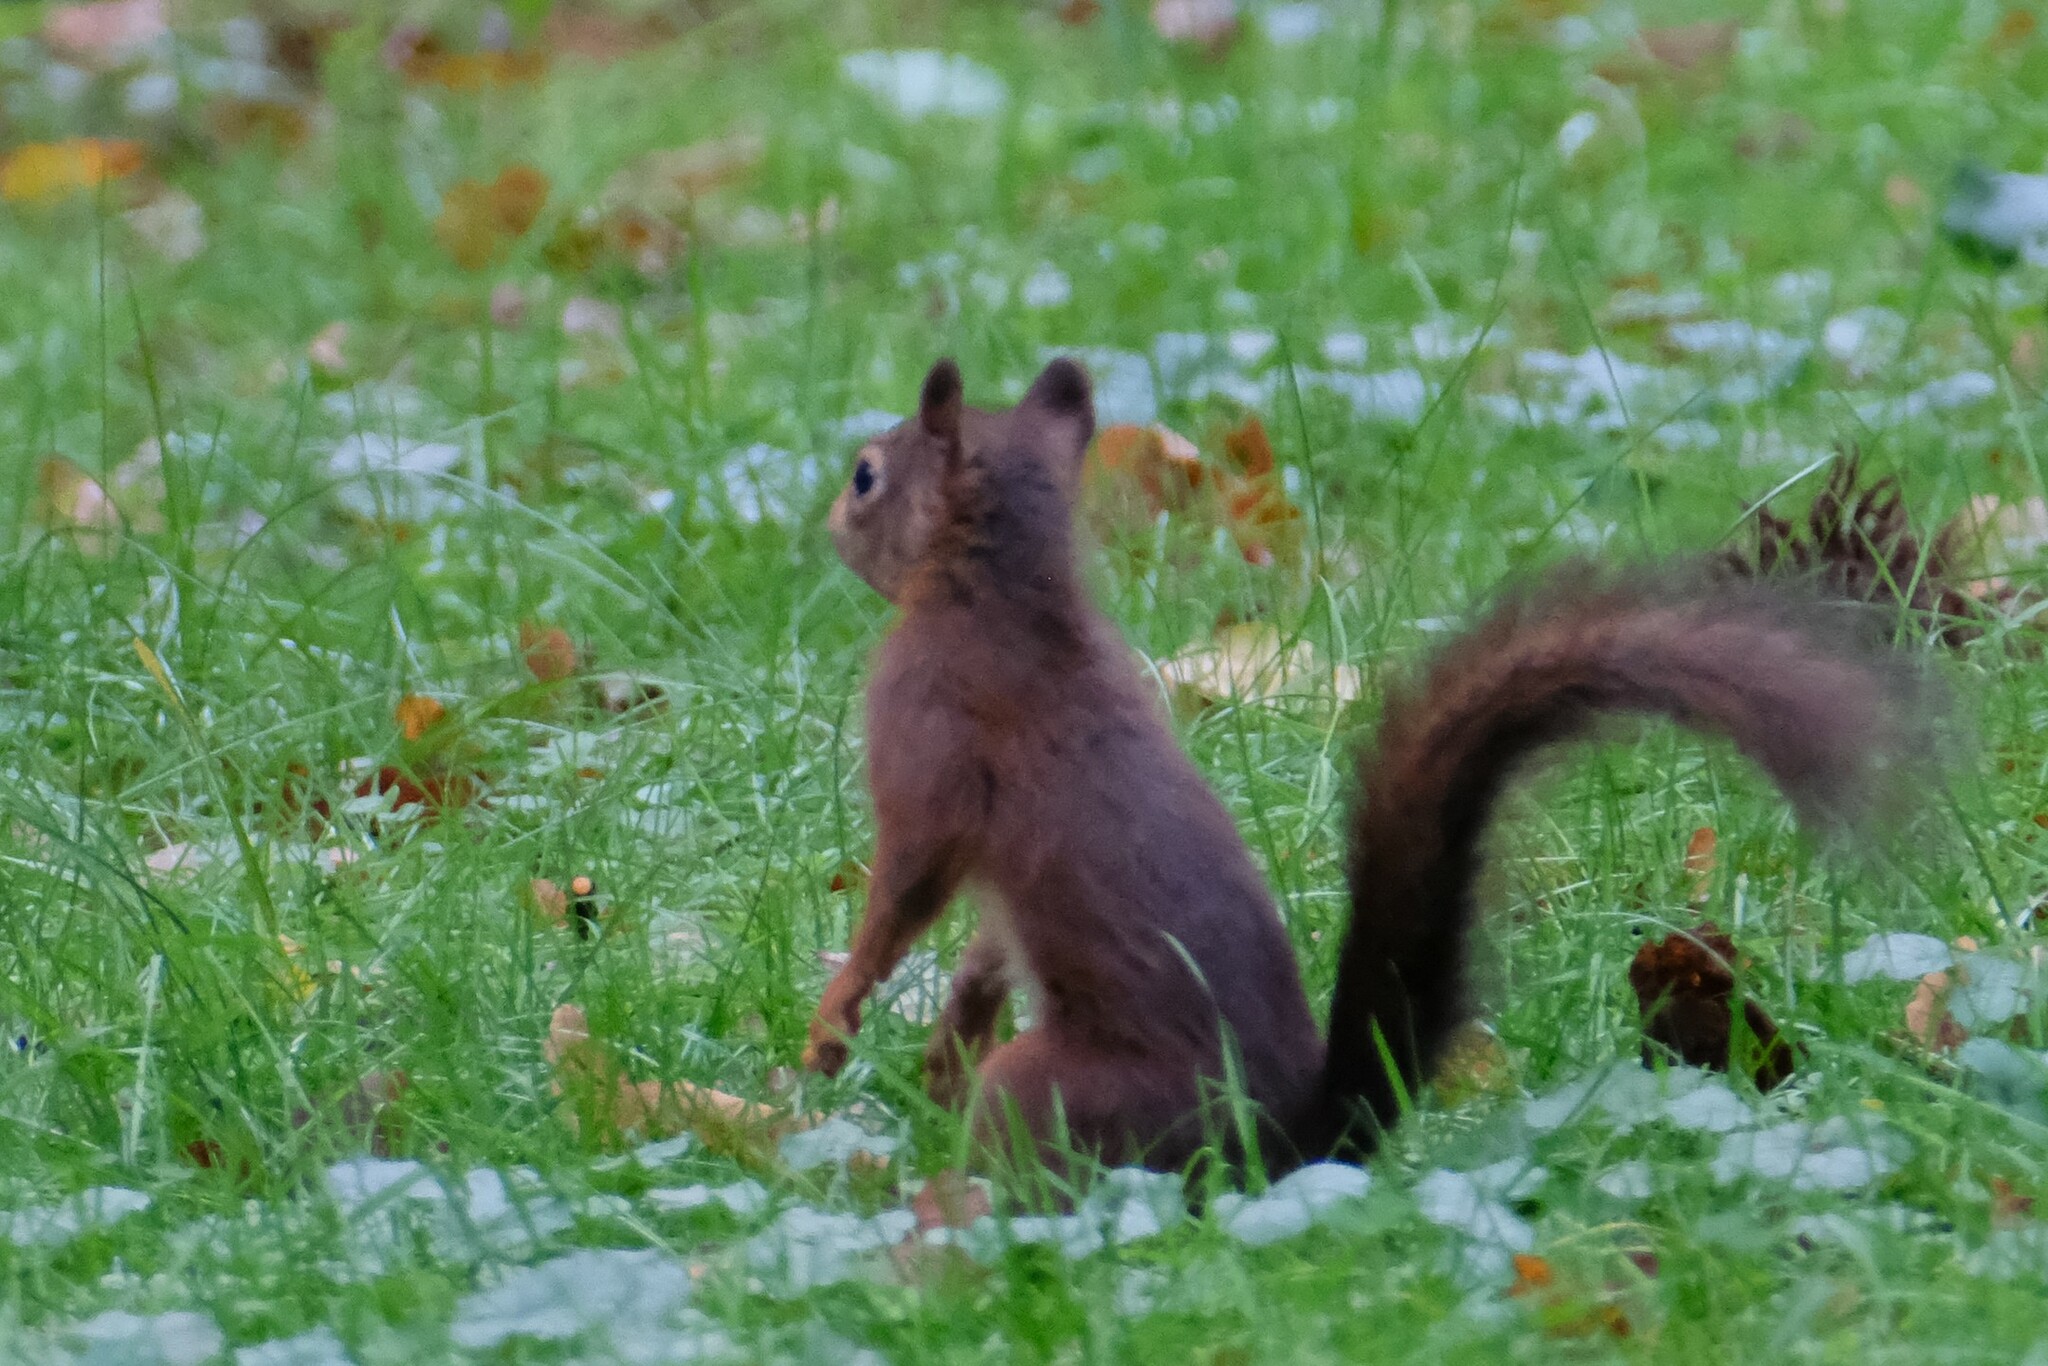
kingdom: Animalia
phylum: Chordata
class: Mammalia
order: Rodentia
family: Sciuridae
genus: Sciurus
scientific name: Sciurus vulgaris
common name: Eurasian red squirrel
